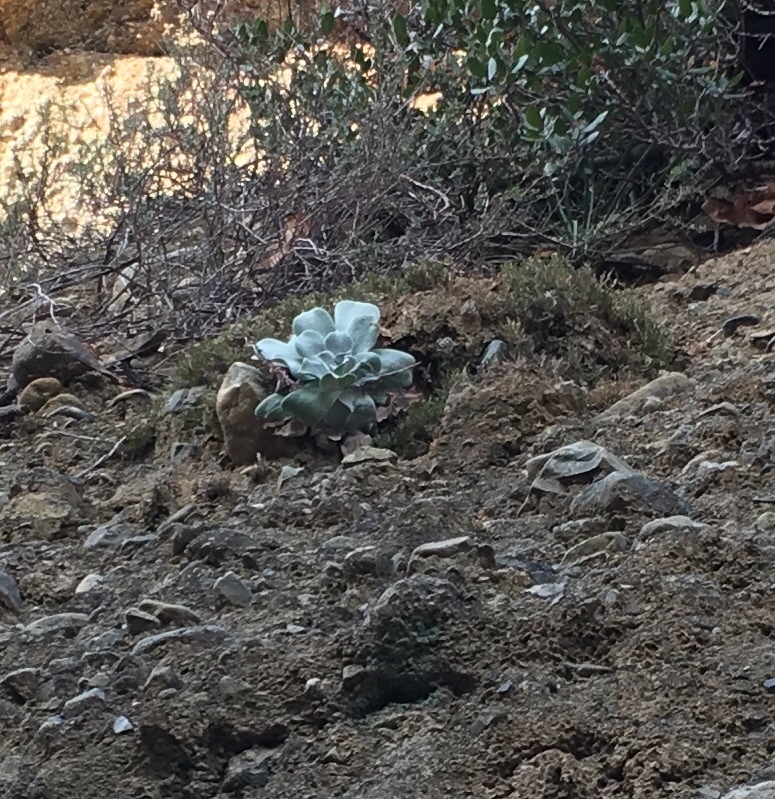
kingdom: Plantae
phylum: Tracheophyta
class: Magnoliopsida
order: Saxifragales
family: Crassulaceae
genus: Dudleya
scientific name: Dudleya pulverulenta
